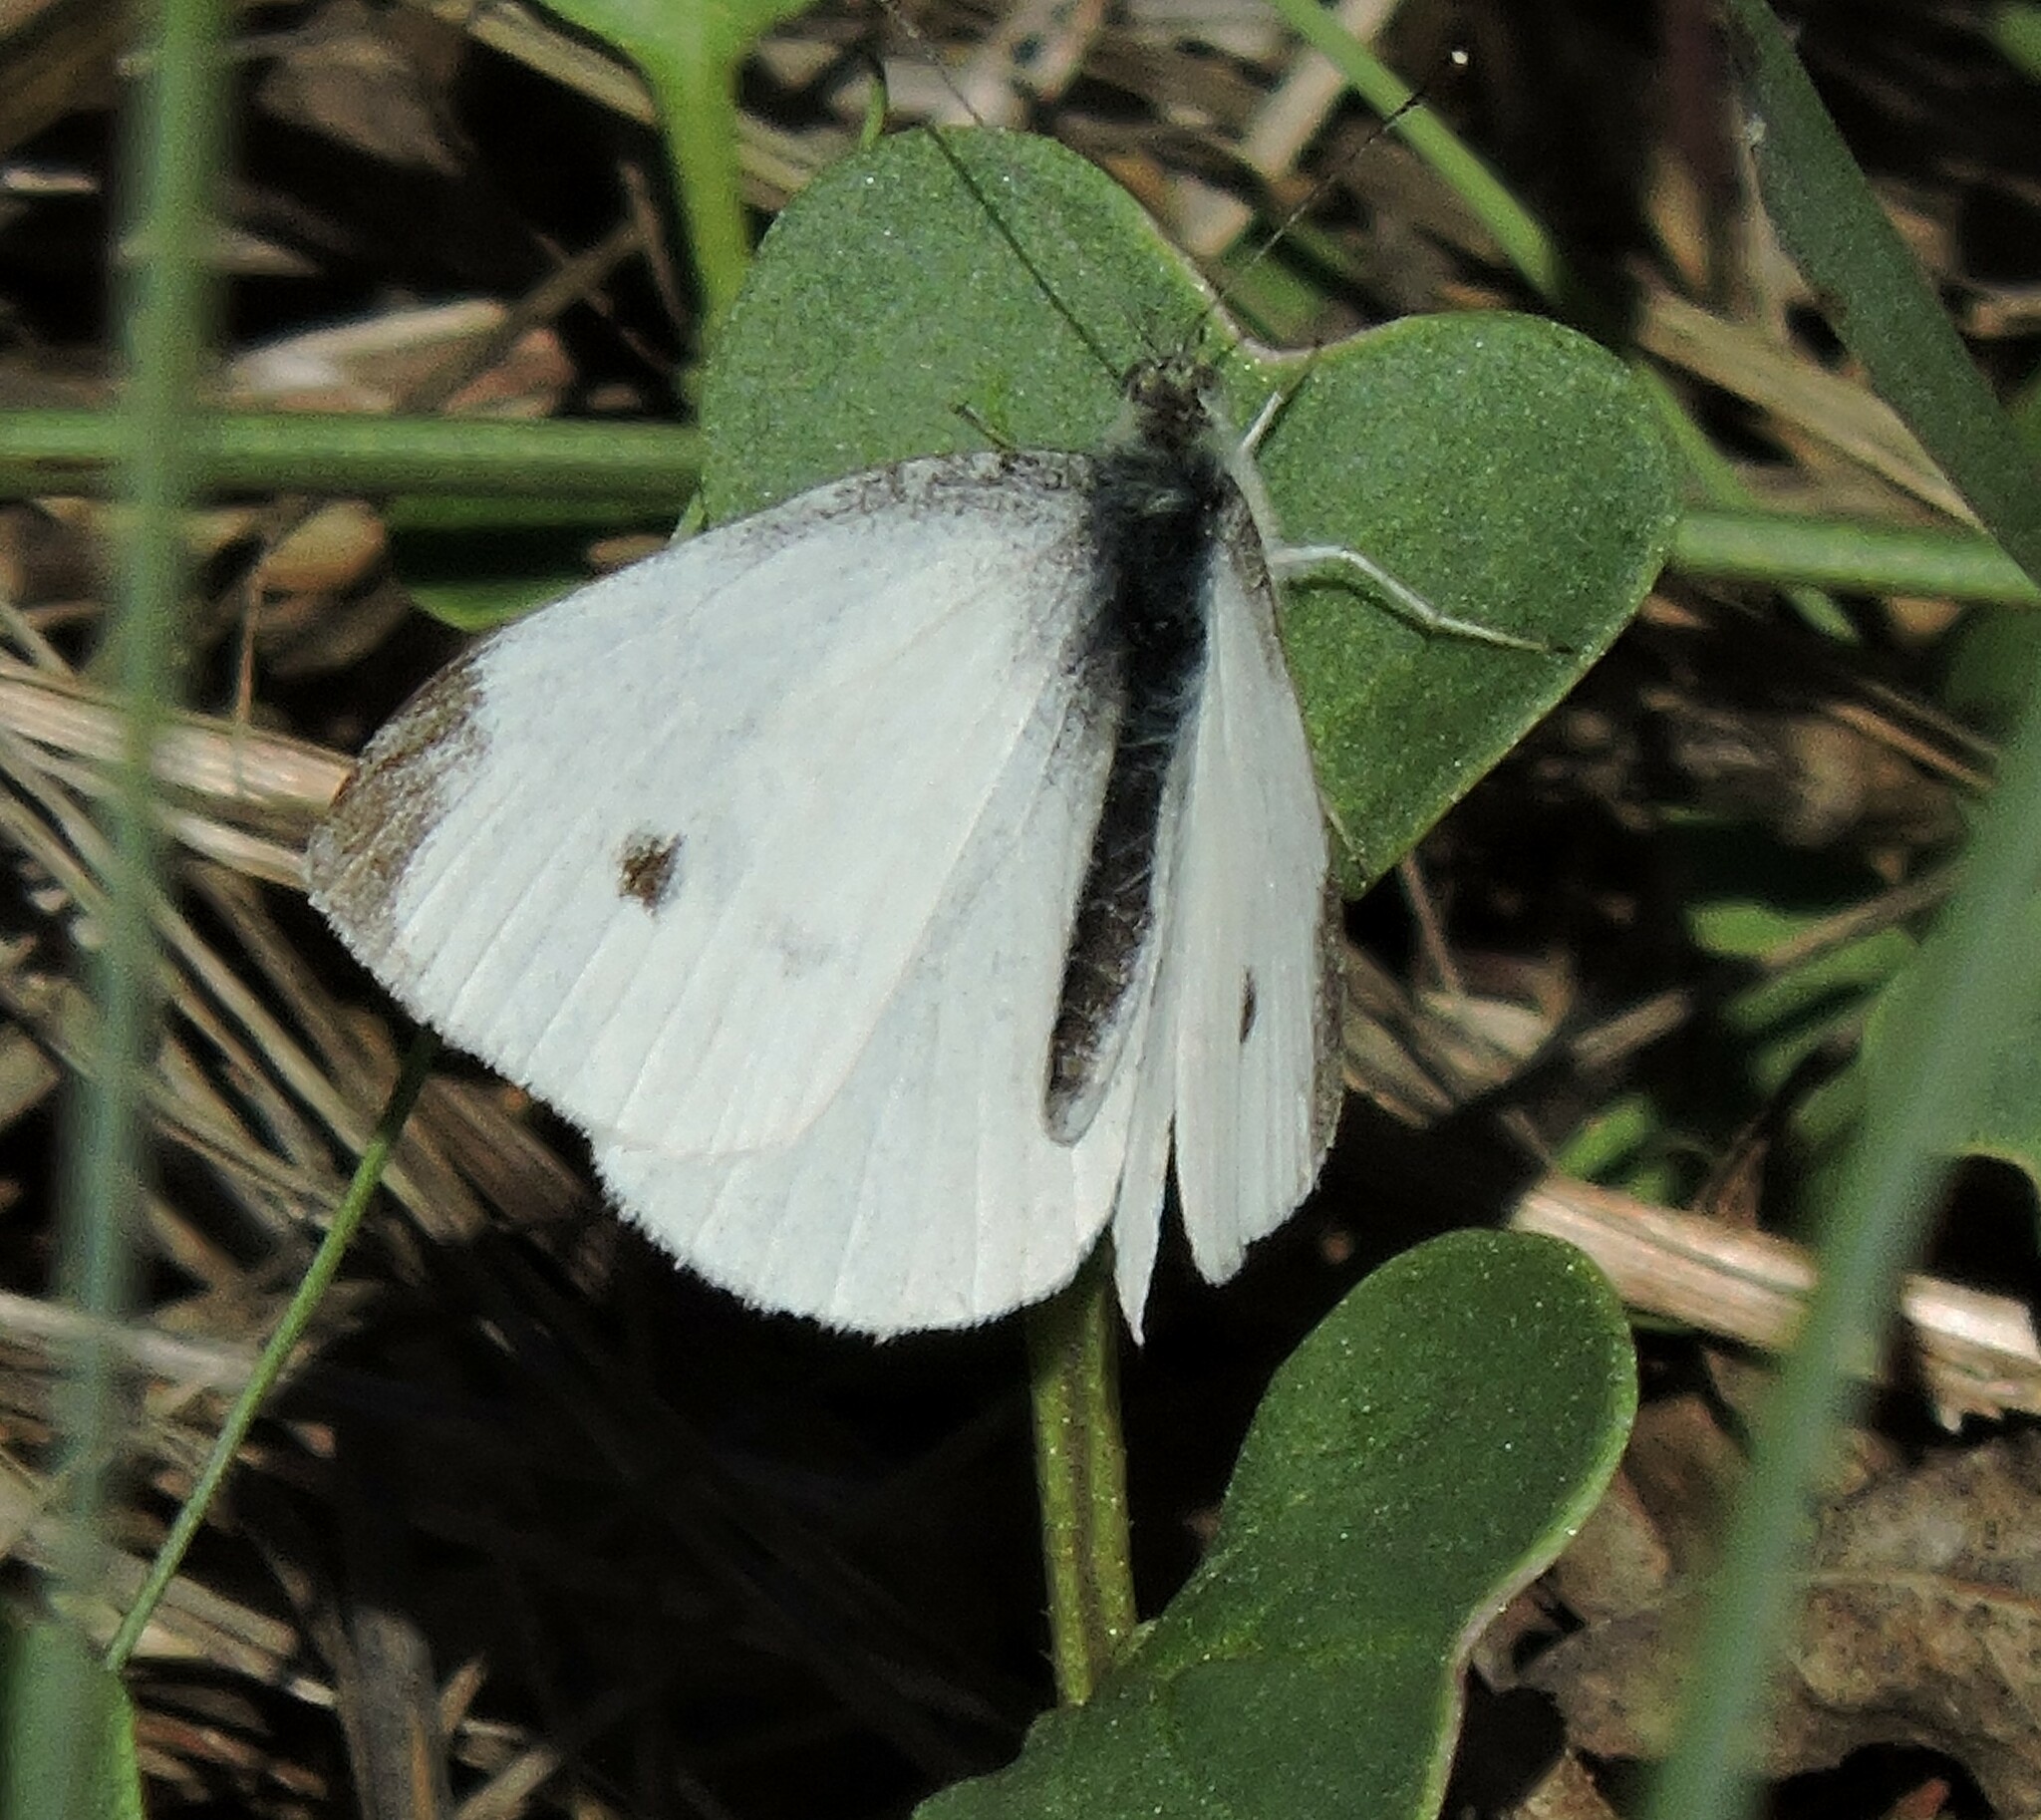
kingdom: Animalia
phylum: Arthropoda
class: Insecta
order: Lepidoptera
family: Pieridae
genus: Pieris
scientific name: Pieris rapae
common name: Small white
